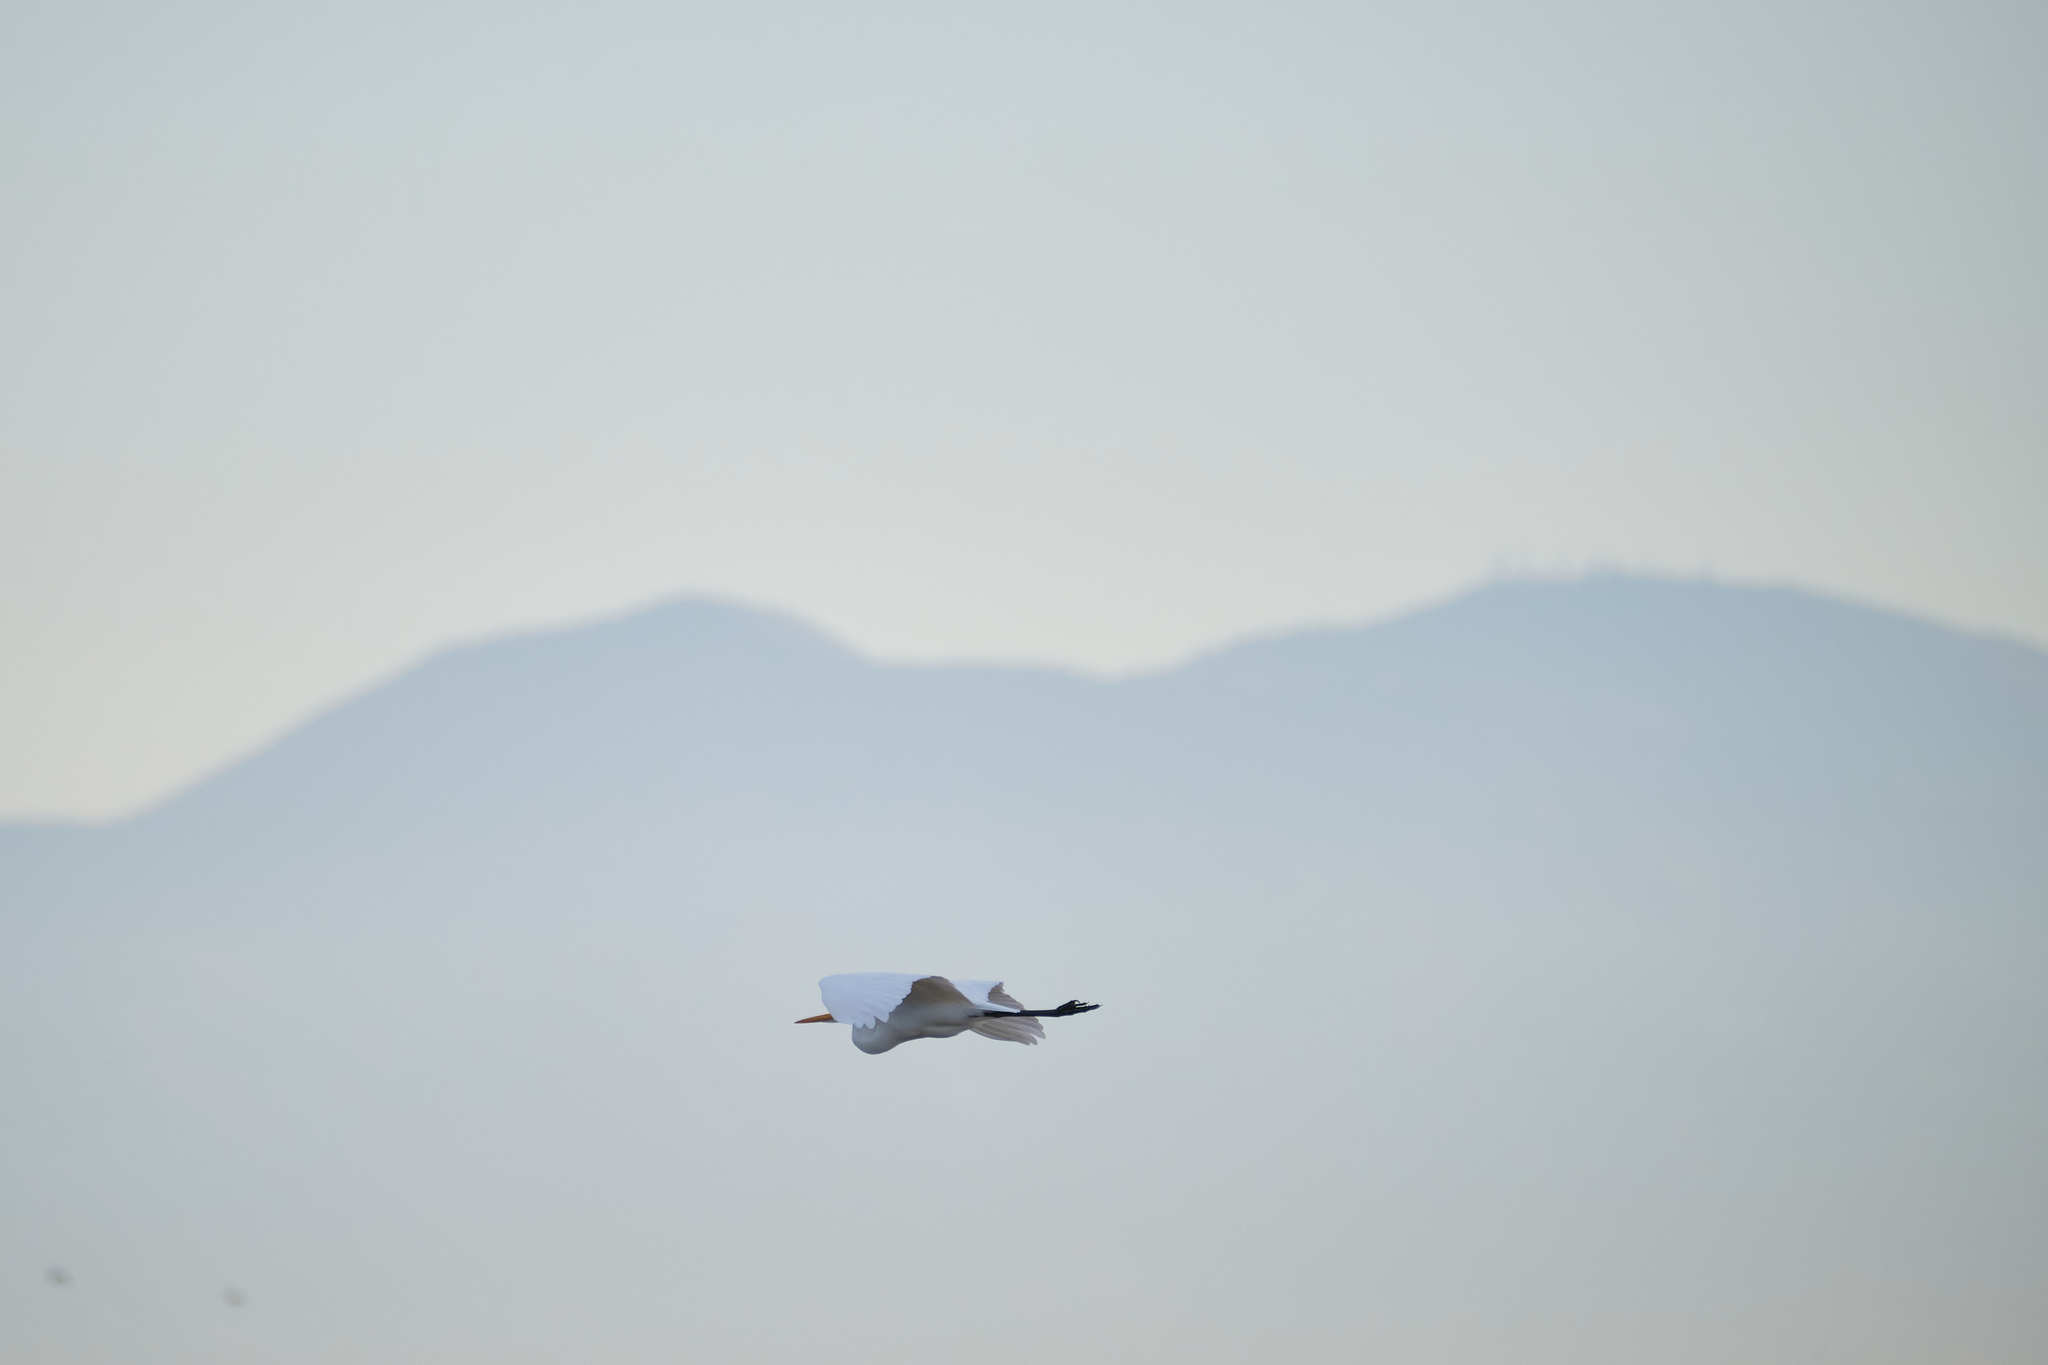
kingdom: Animalia
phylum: Chordata
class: Aves
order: Pelecaniformes
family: Ardeidae
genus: Ardea
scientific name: Ardea alba
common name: Great egret
